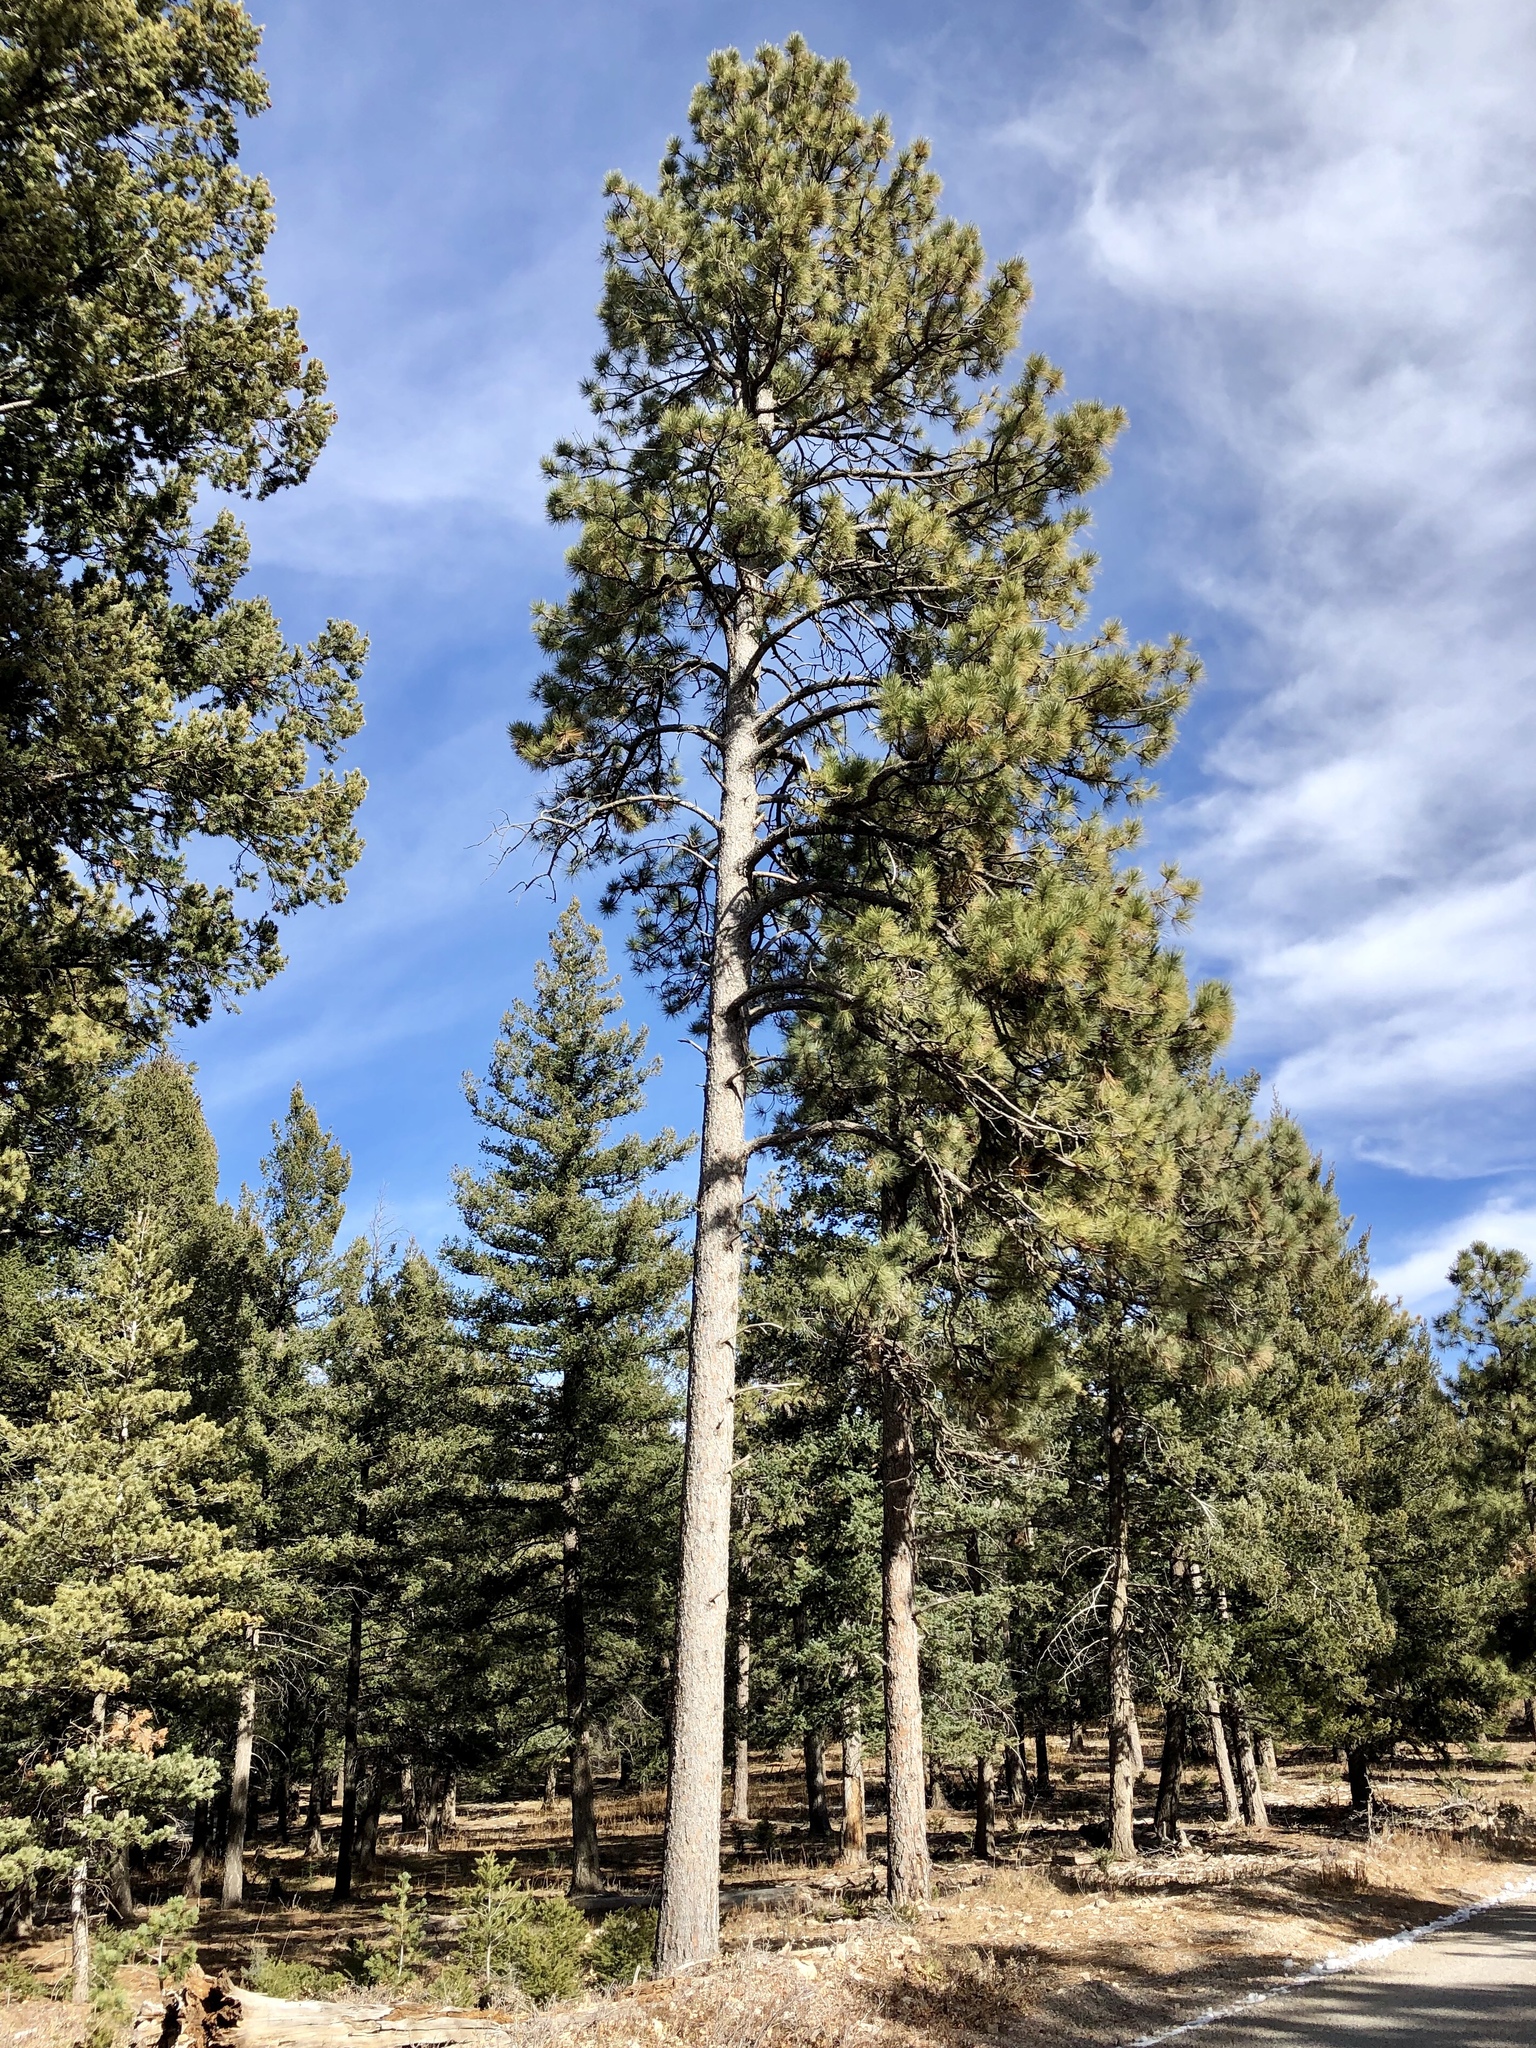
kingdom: Plantae
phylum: Tracheophyta
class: Pinopsida
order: Pinales
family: Pinaceae
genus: Pinus
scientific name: Pinus ponderosa
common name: Western yellow-pine
